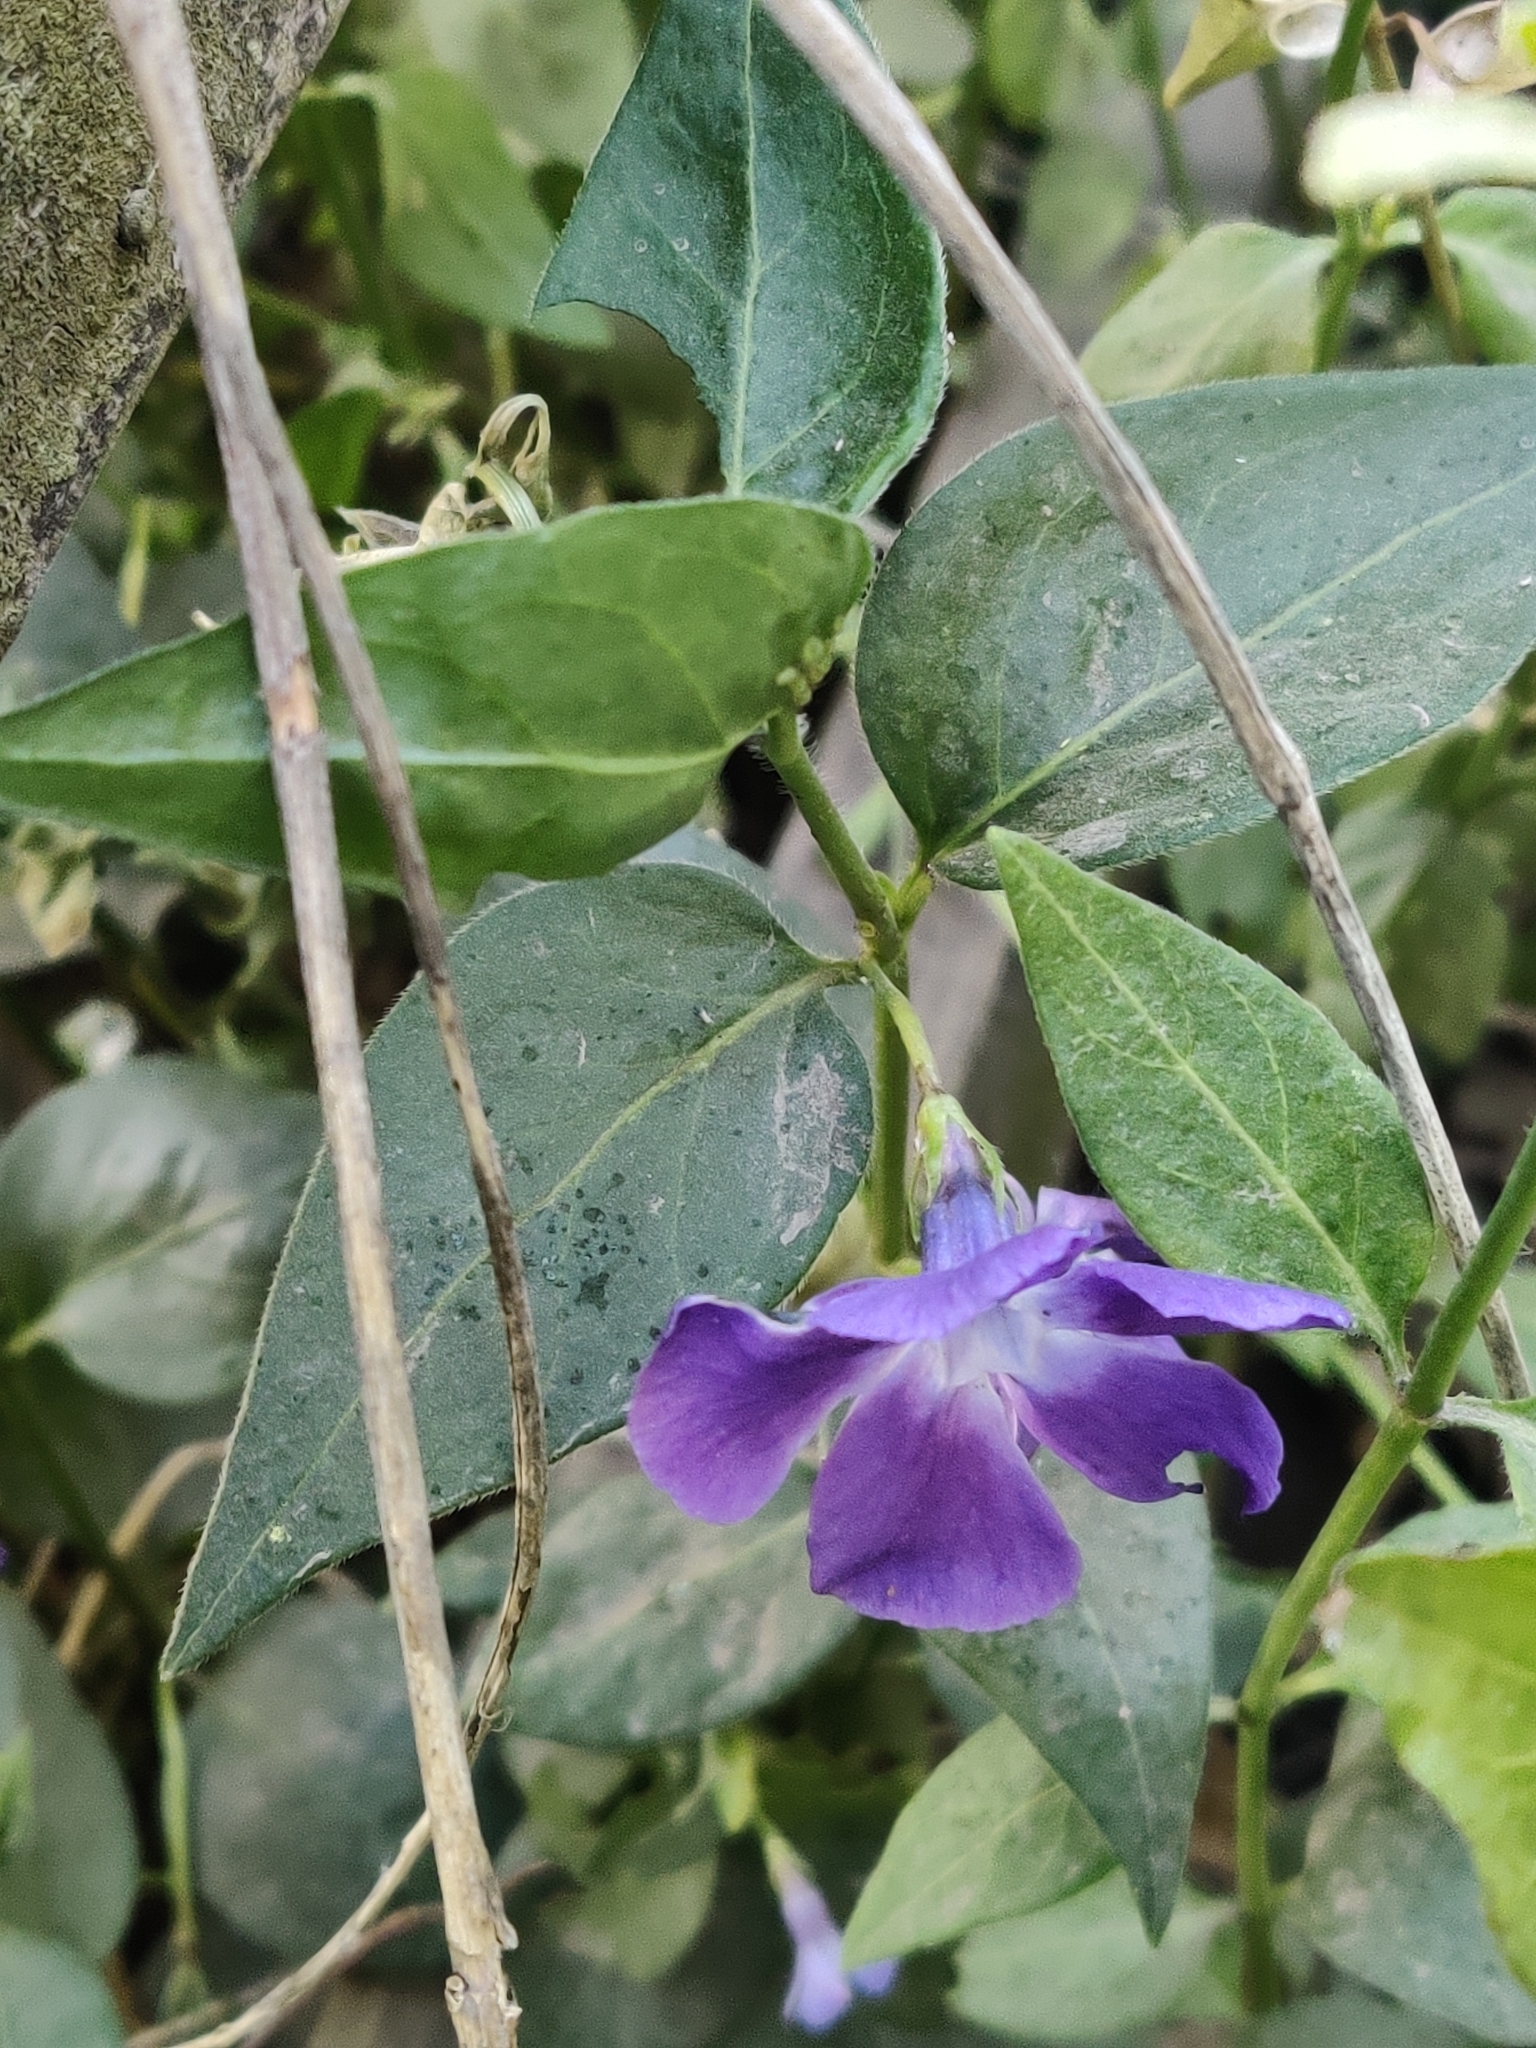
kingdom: Plantae
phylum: Tracheophyta
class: Magnoliopsida
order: Gentianales
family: Apocynaceae
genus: Vinca
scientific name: Vinca major
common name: Greater periwinkle
